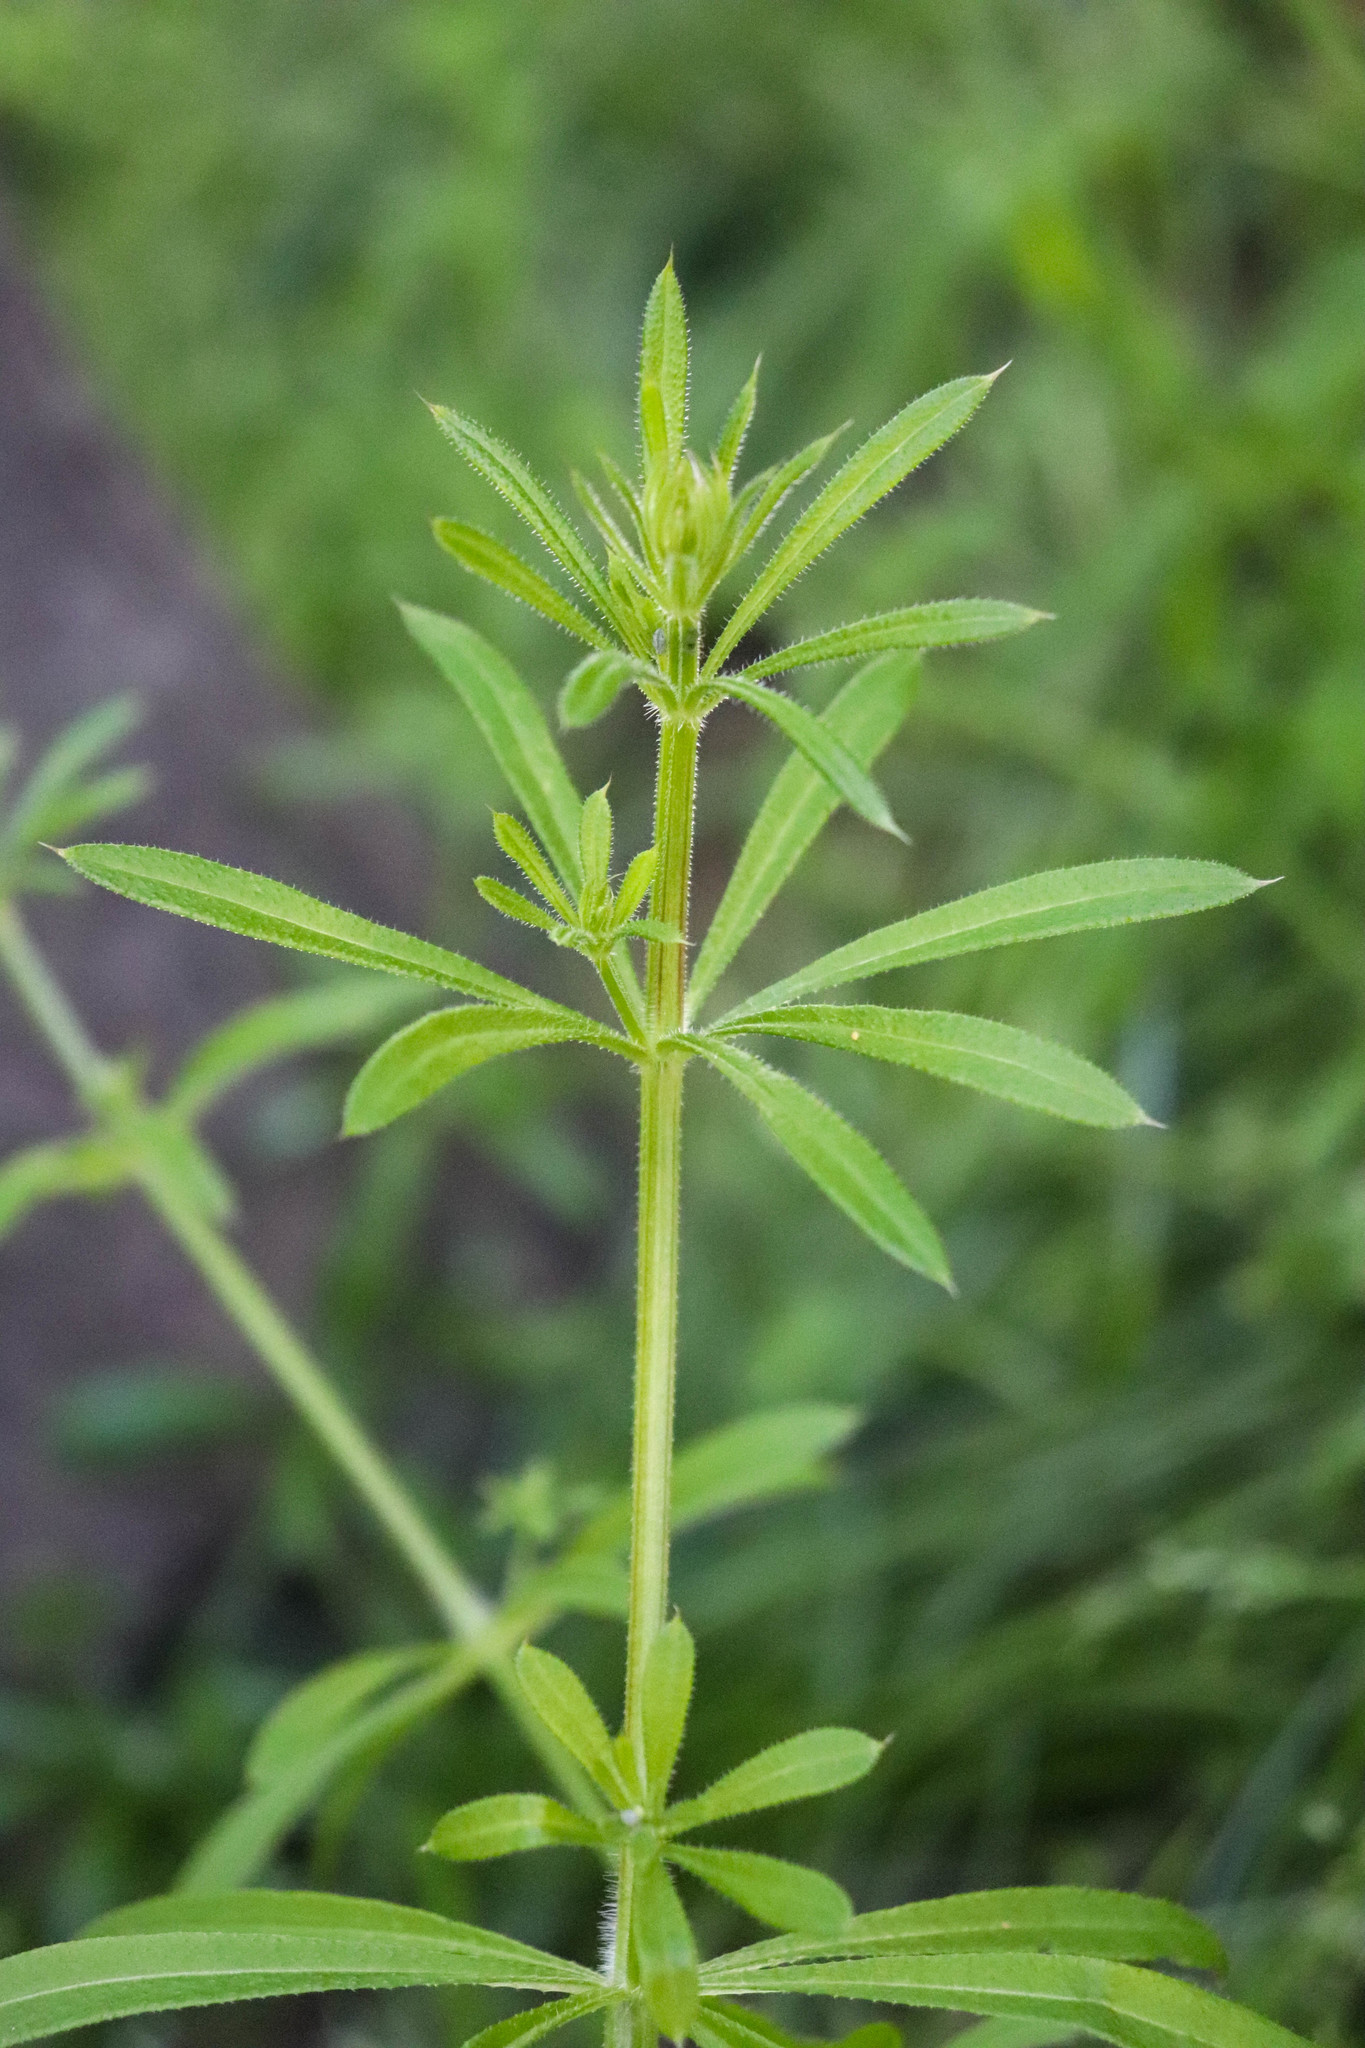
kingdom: Plantae
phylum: Tracheophyta
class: Magnoliopsida
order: Gentianales
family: Rubiaceae
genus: Galium
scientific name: Galium aparine
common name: Cleavers
